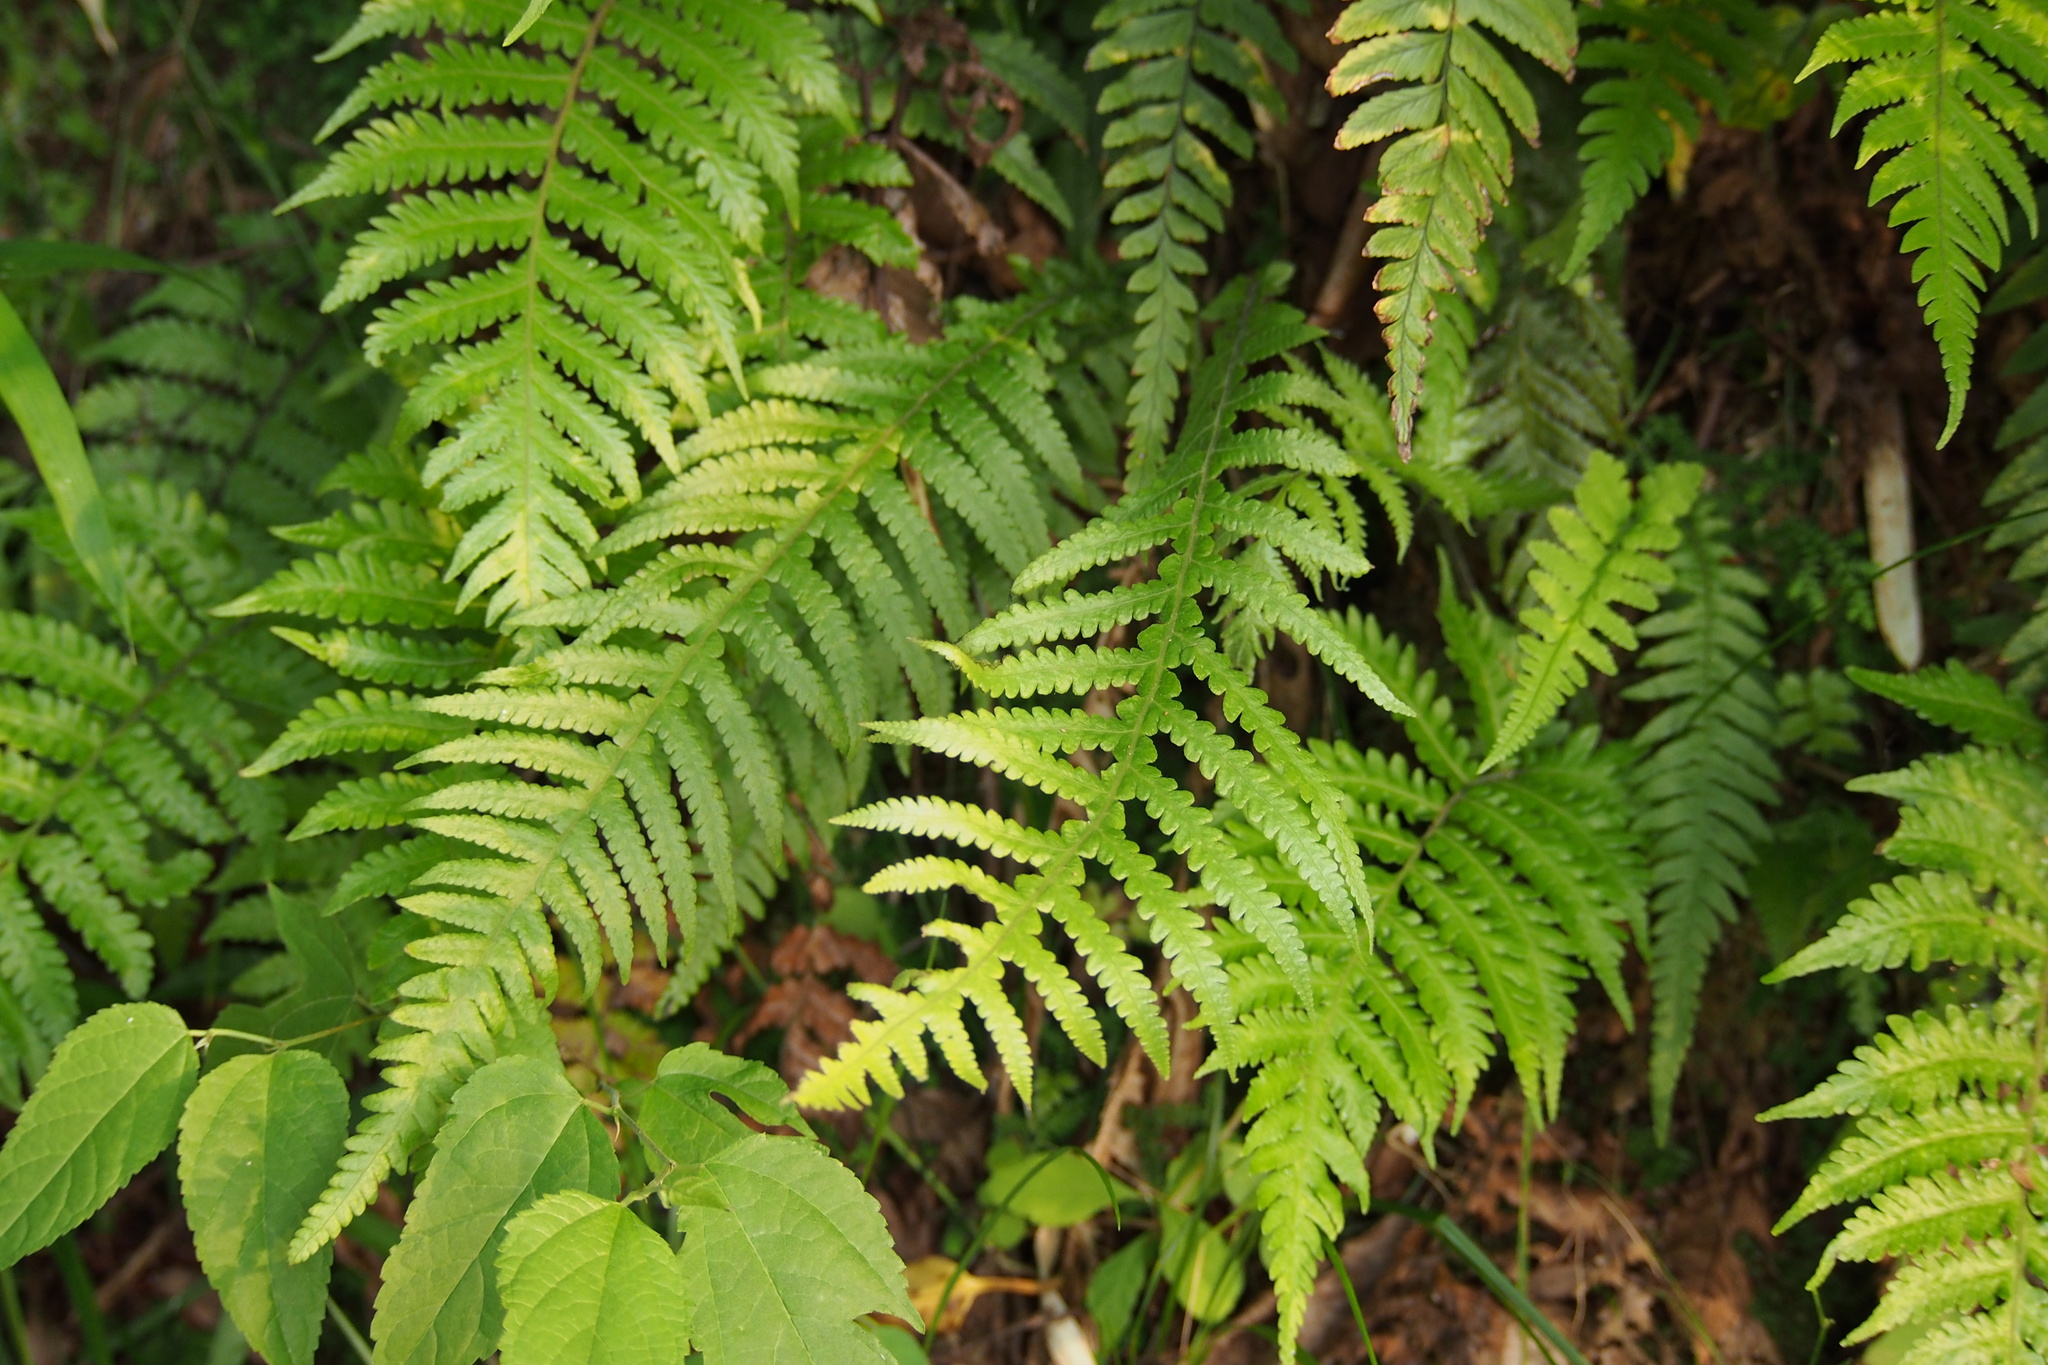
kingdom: Plantae
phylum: Tracheophyta
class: Polypodiopsida
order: Polypodiales
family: Thelypteridaceae
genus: Phegopteris
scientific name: Phegopteris decursive-pinnata
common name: Japanese beech fern
